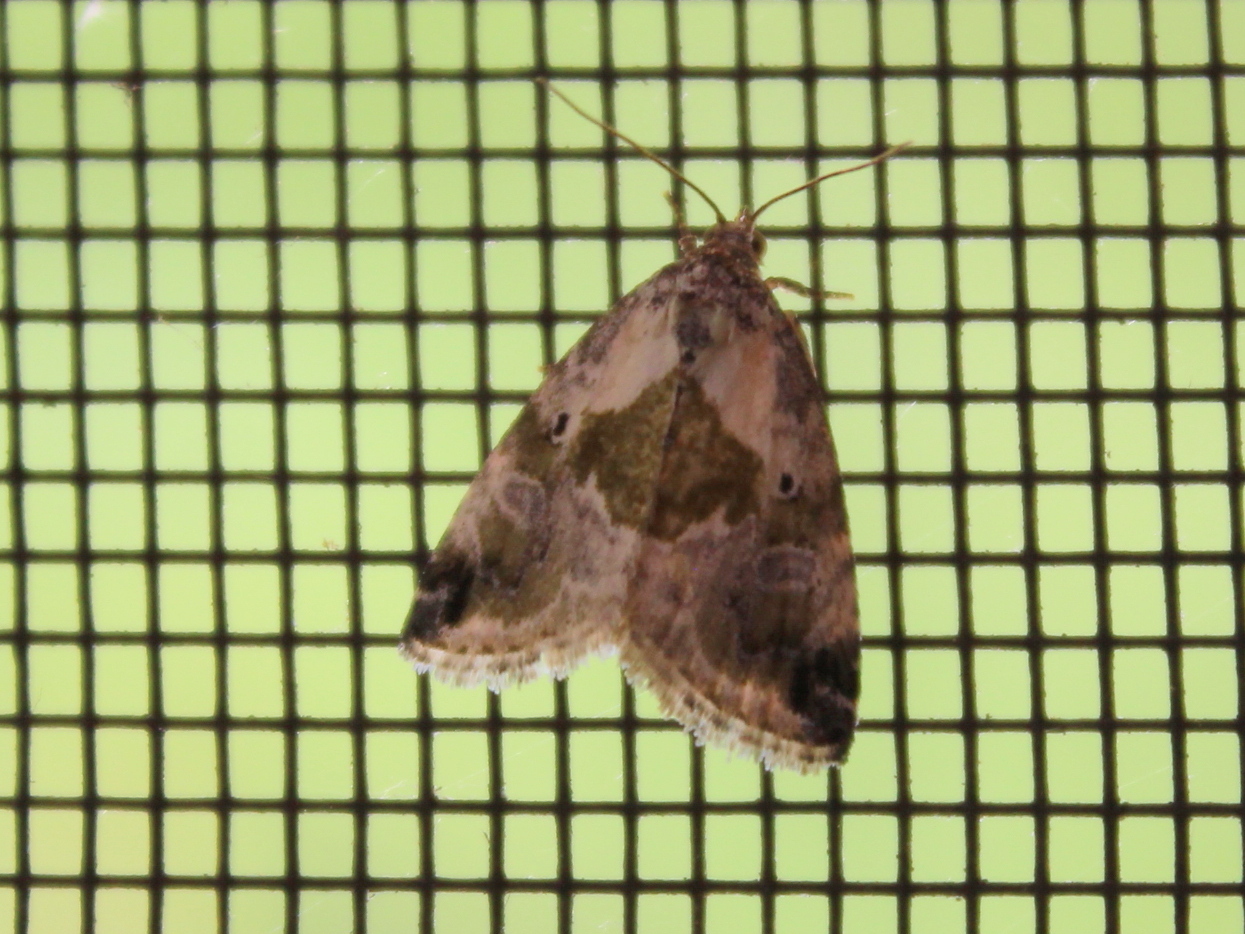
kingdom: Animalia
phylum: Arthropoda
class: Insecta
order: Lepidoptera
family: Noctuidae
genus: Maliattha
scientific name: Maliattha synochitis
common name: Black-dotted glyph
